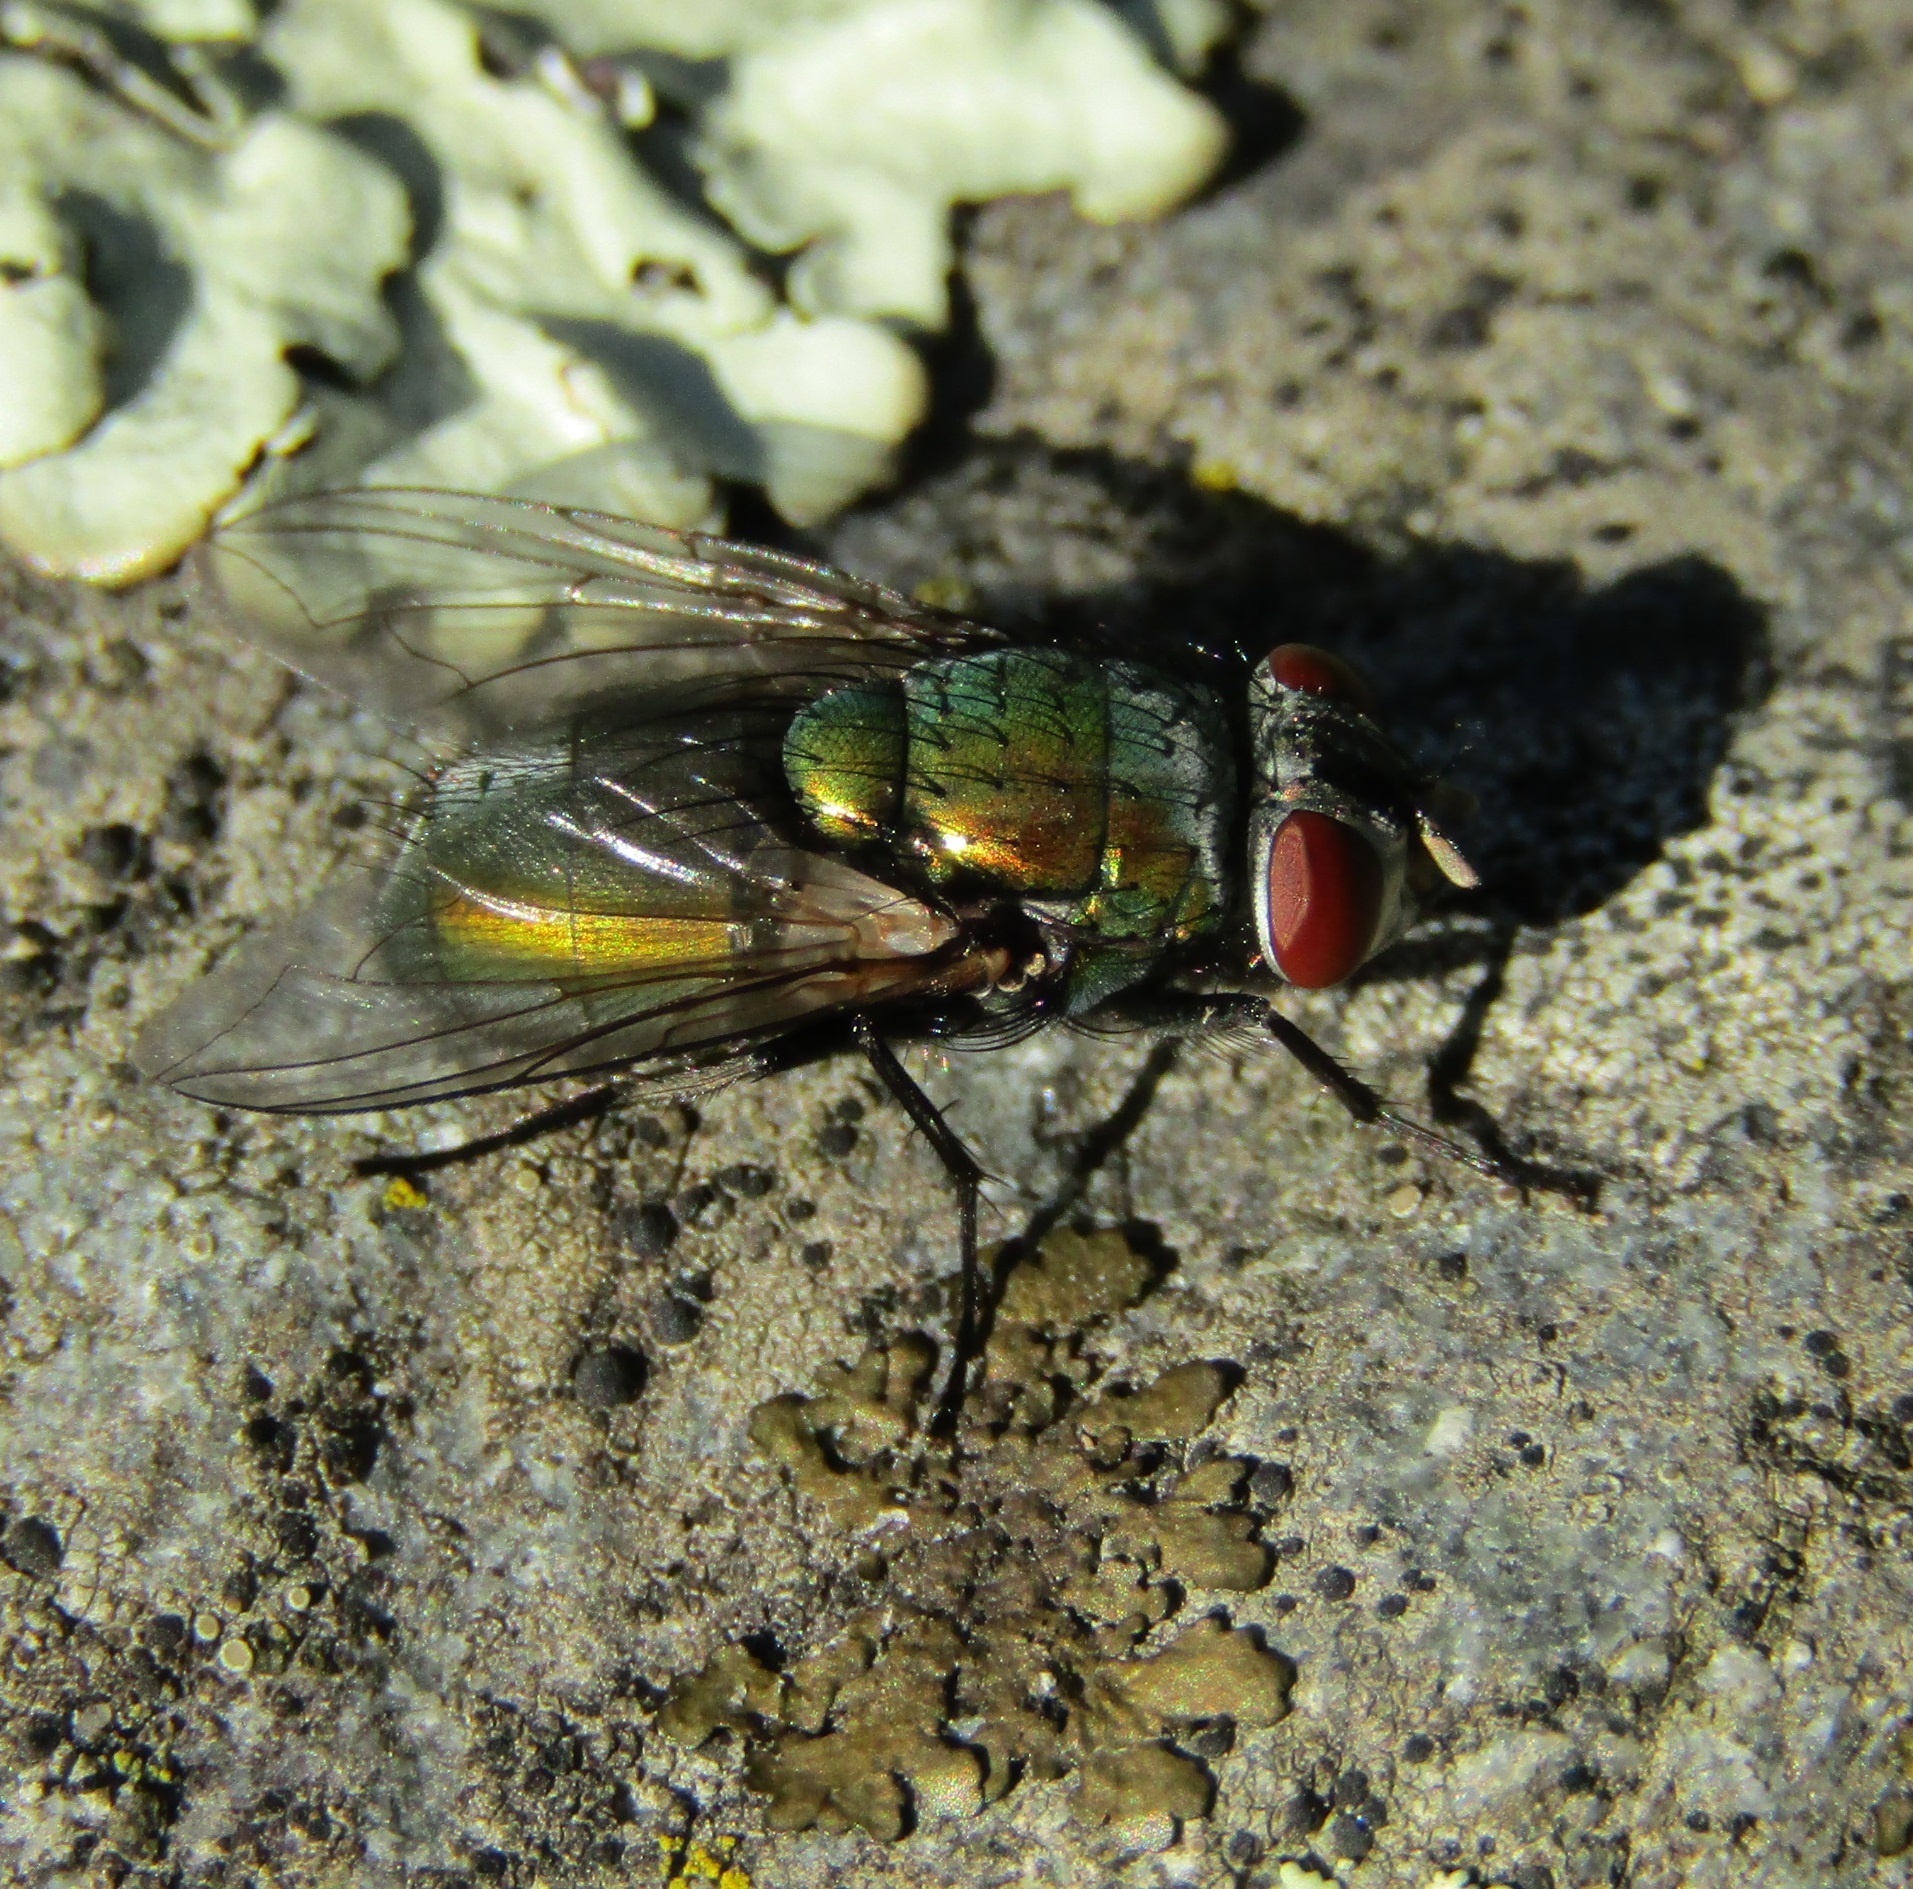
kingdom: Animalia
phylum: Arthropoda
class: Insecta
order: Diptera
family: Calliphoridae
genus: Lucilia
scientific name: Lucilia sericata
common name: Blow fly
